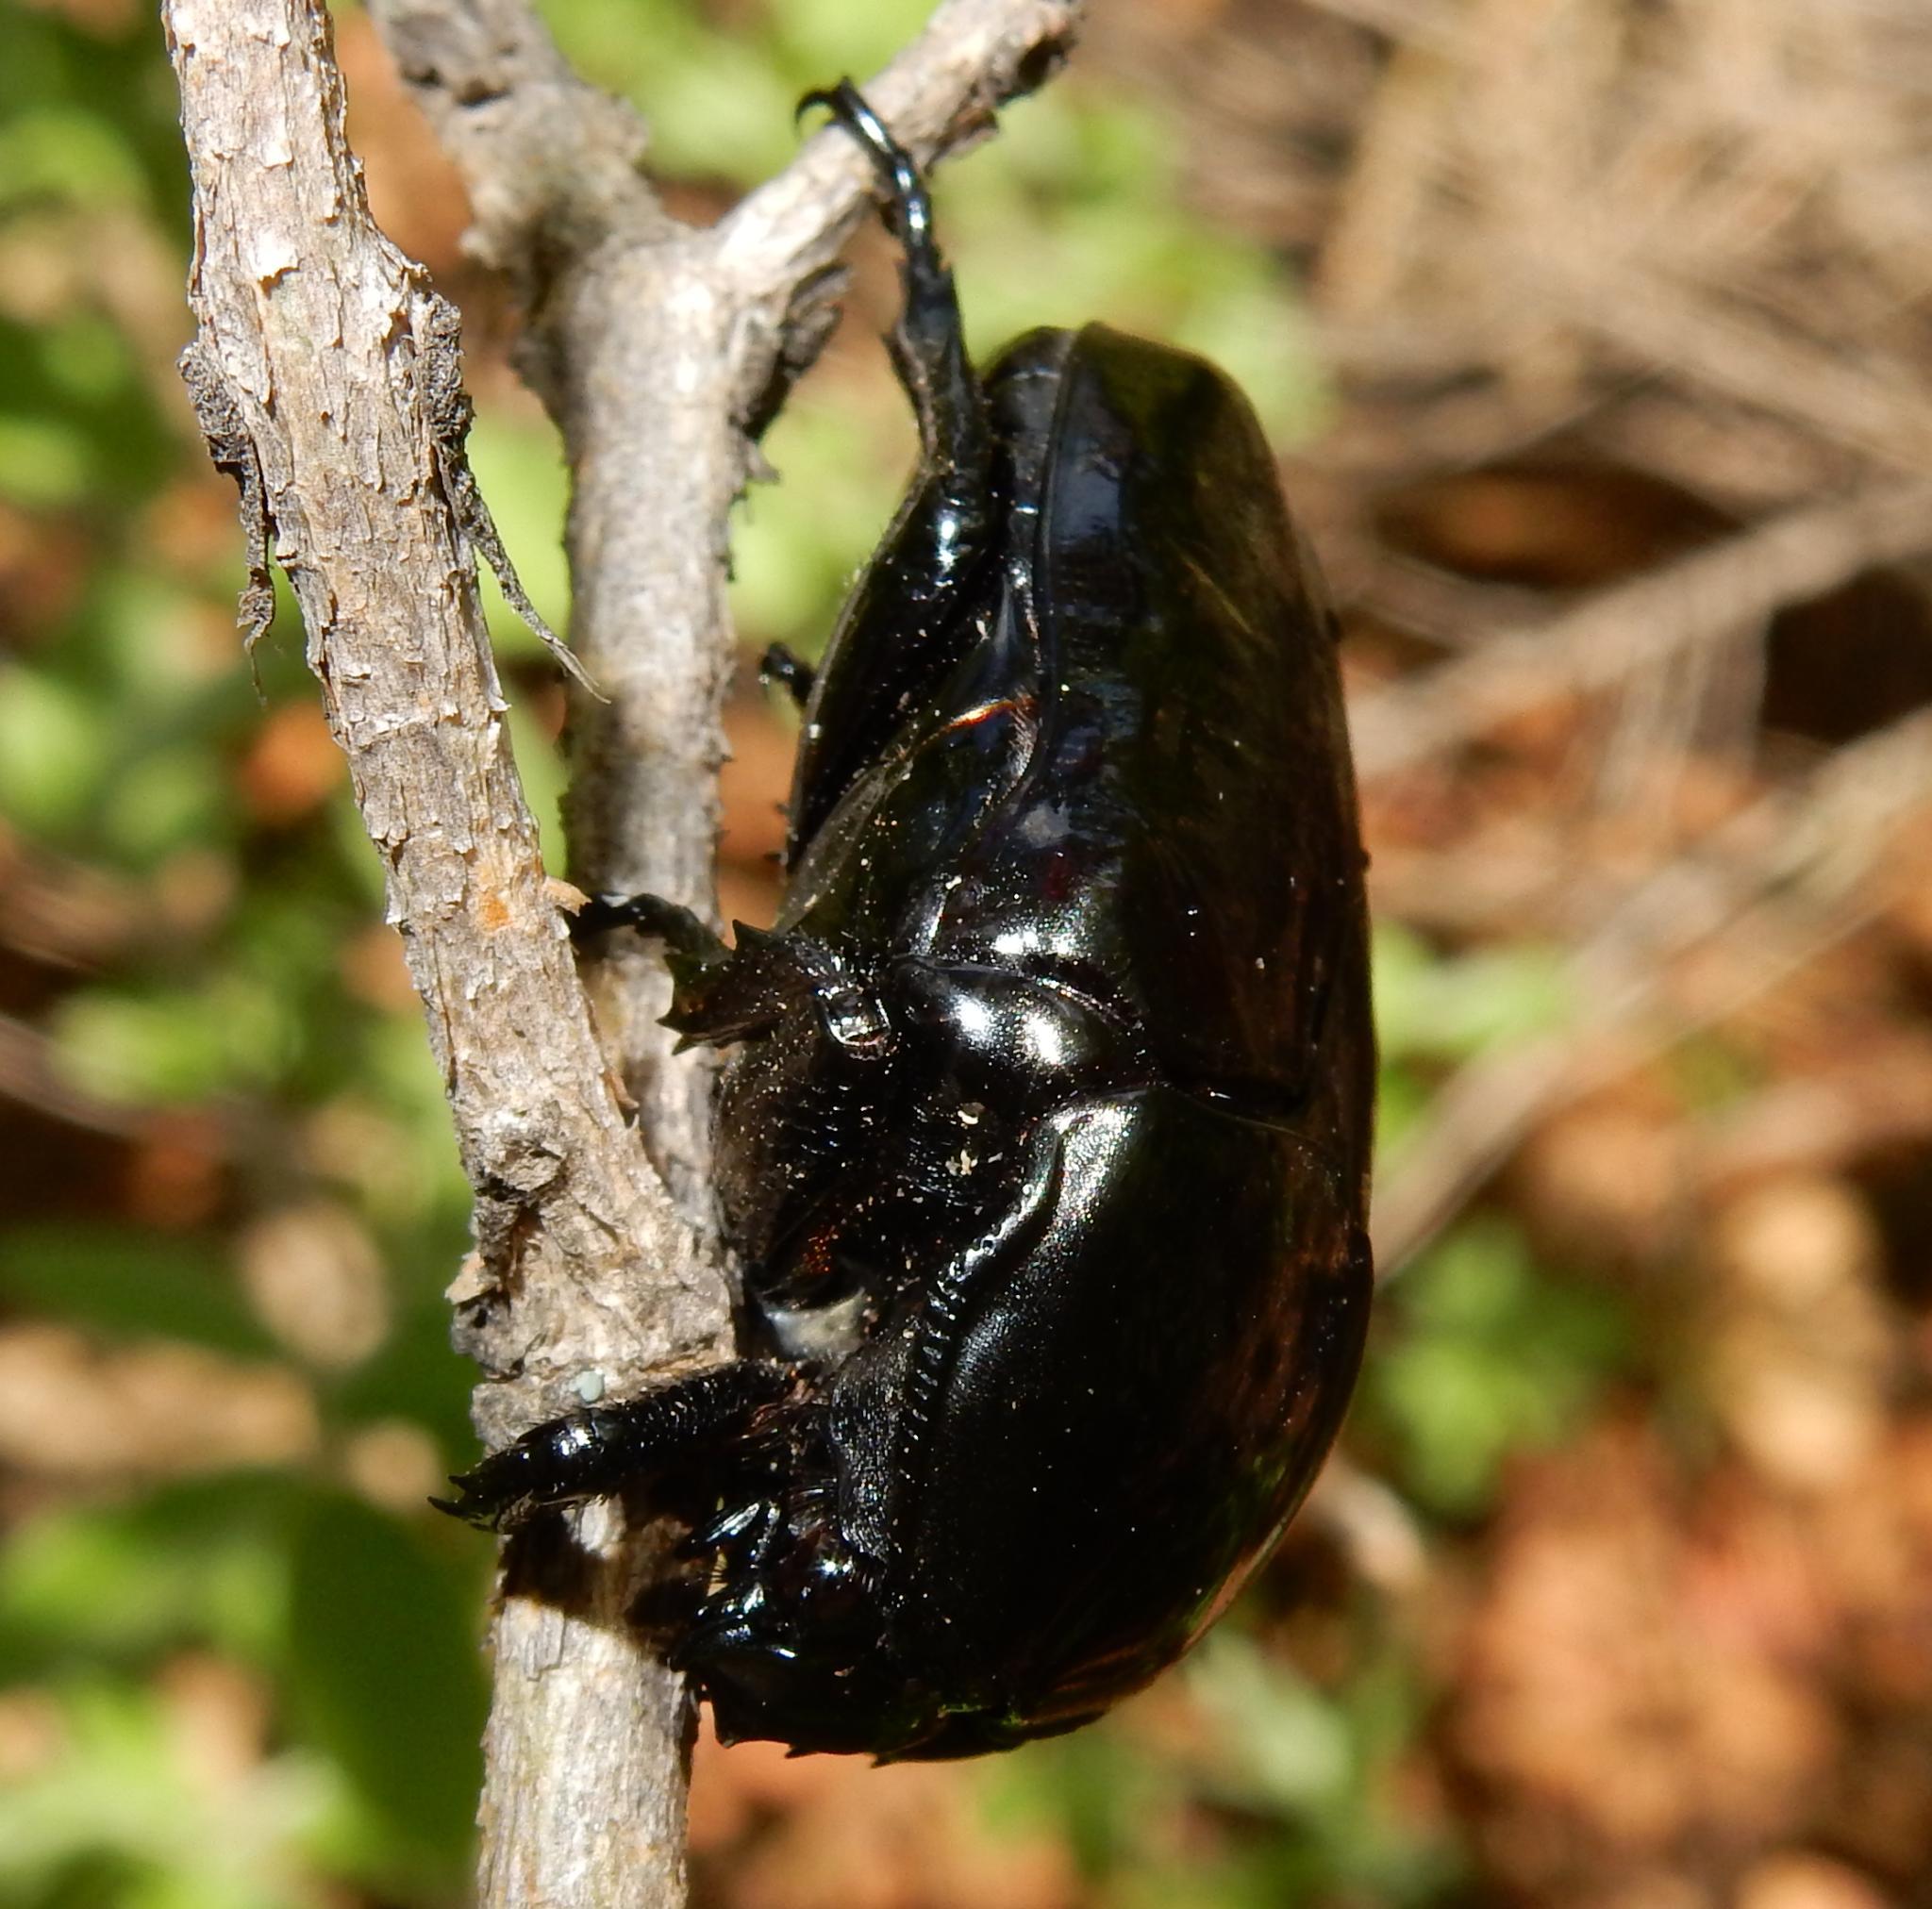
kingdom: Animalia
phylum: Arthropoda
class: Insecta
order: Coleoptera
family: Scarabaeidae
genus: Diplognatha
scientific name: Diplognatha gagates
